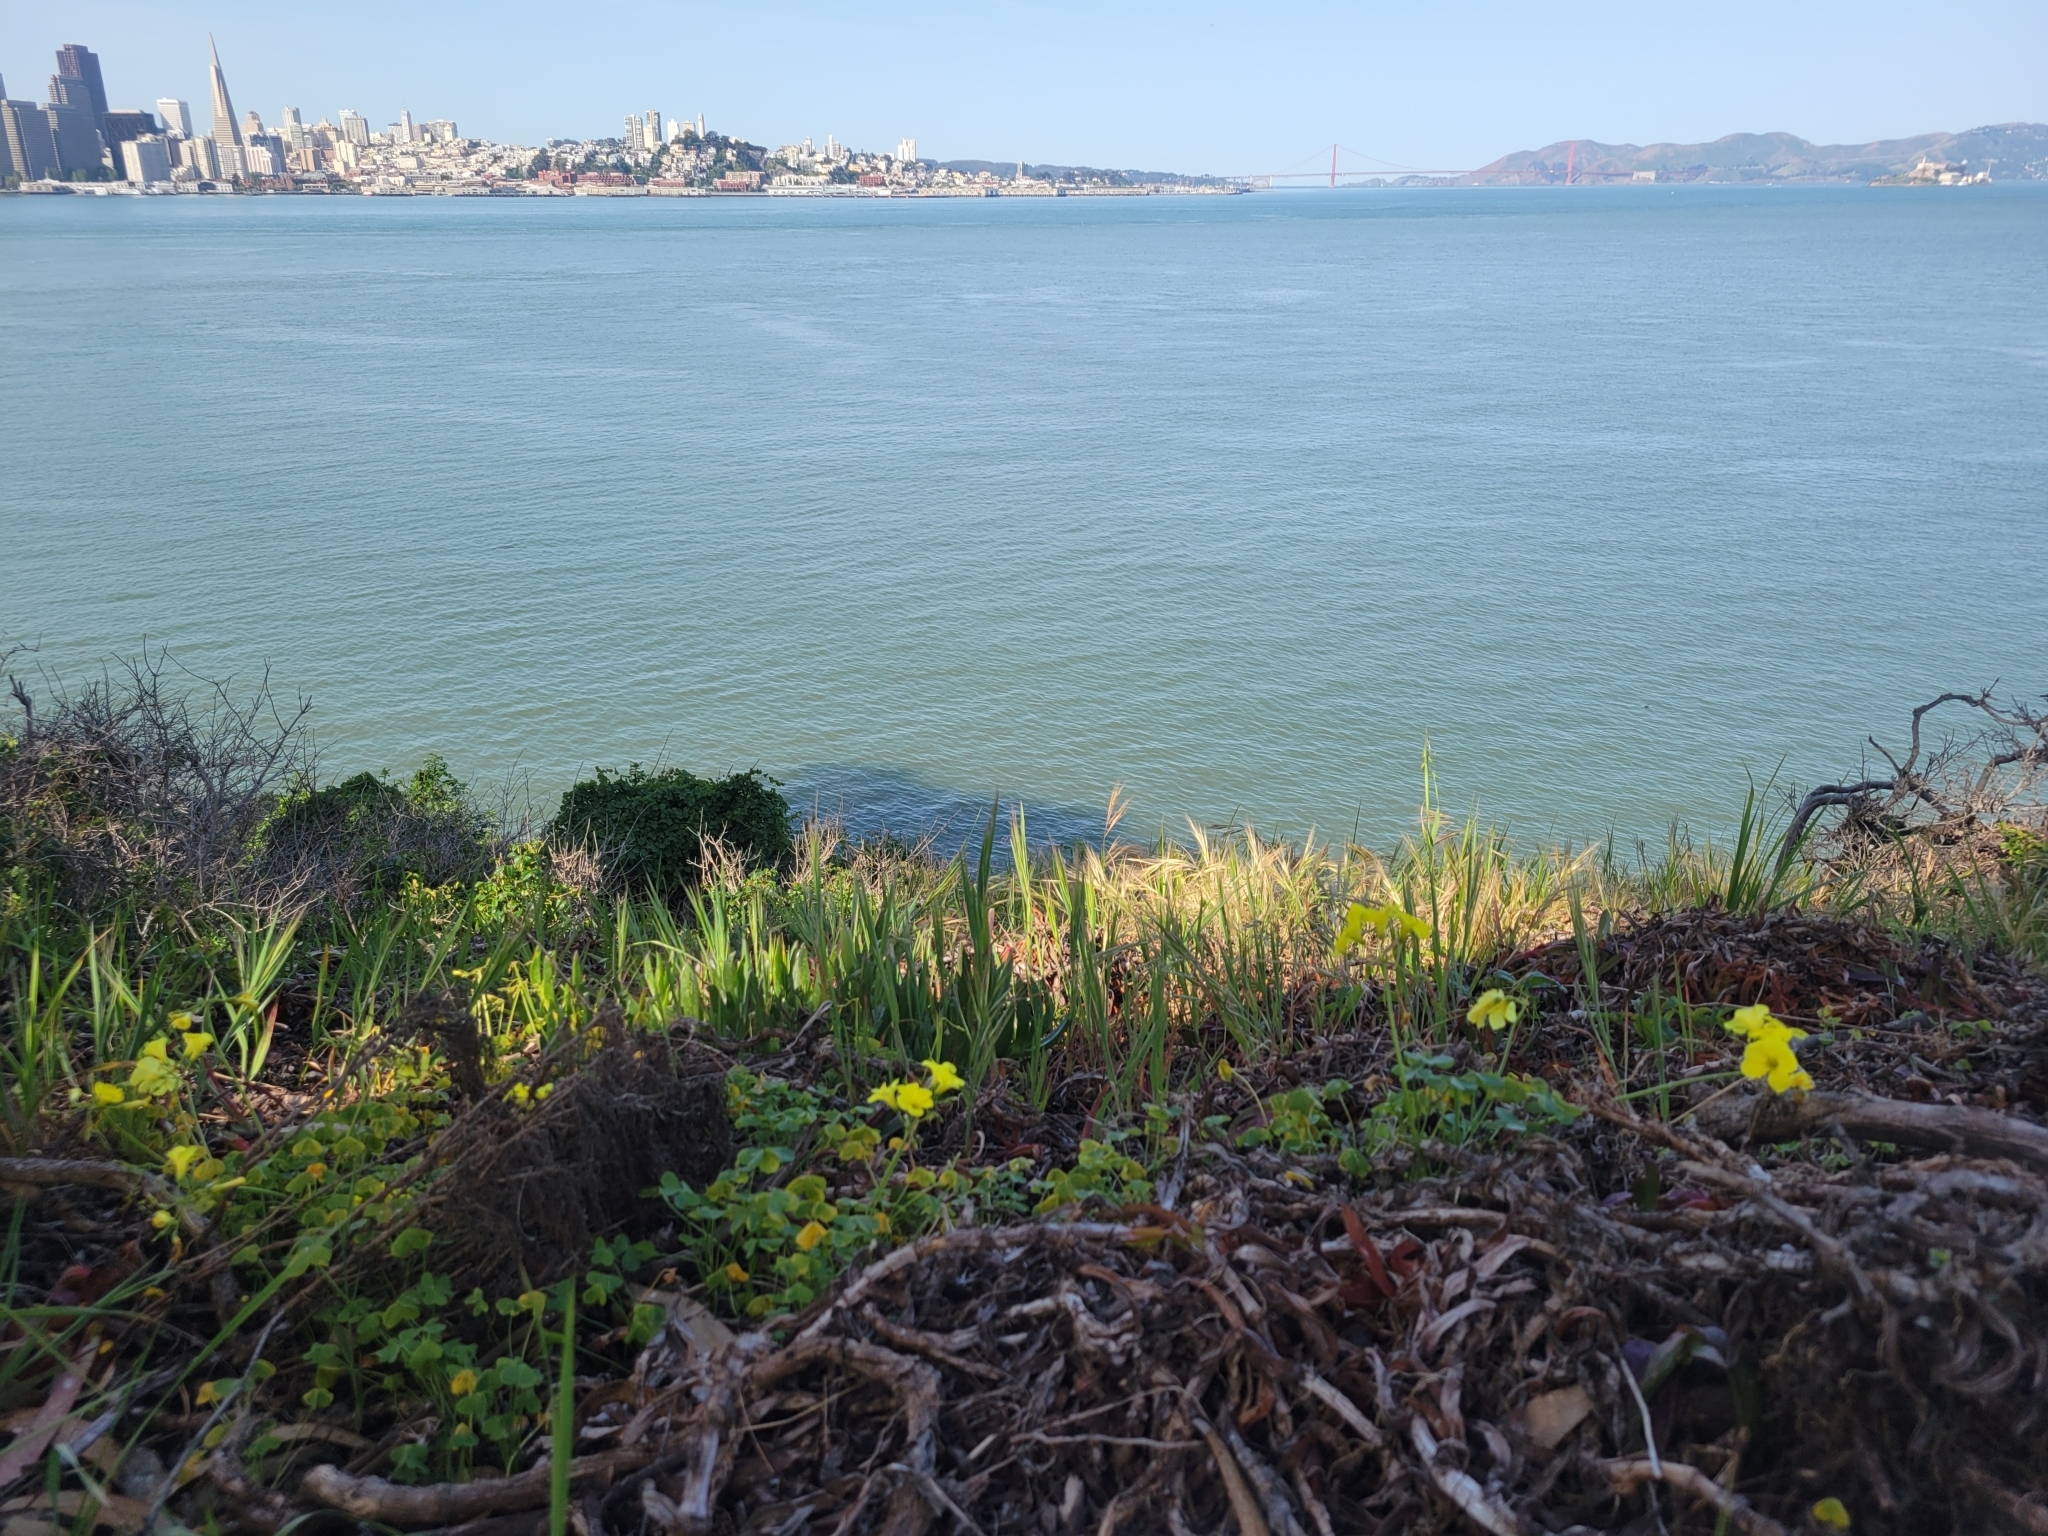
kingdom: Plantae
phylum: Tracheophyta
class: Magnoliopsida
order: Oxalidales
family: Oxalidaceae
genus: Oxalis
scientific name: Oxalis pes-caprae
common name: Bermuda-buttercup
